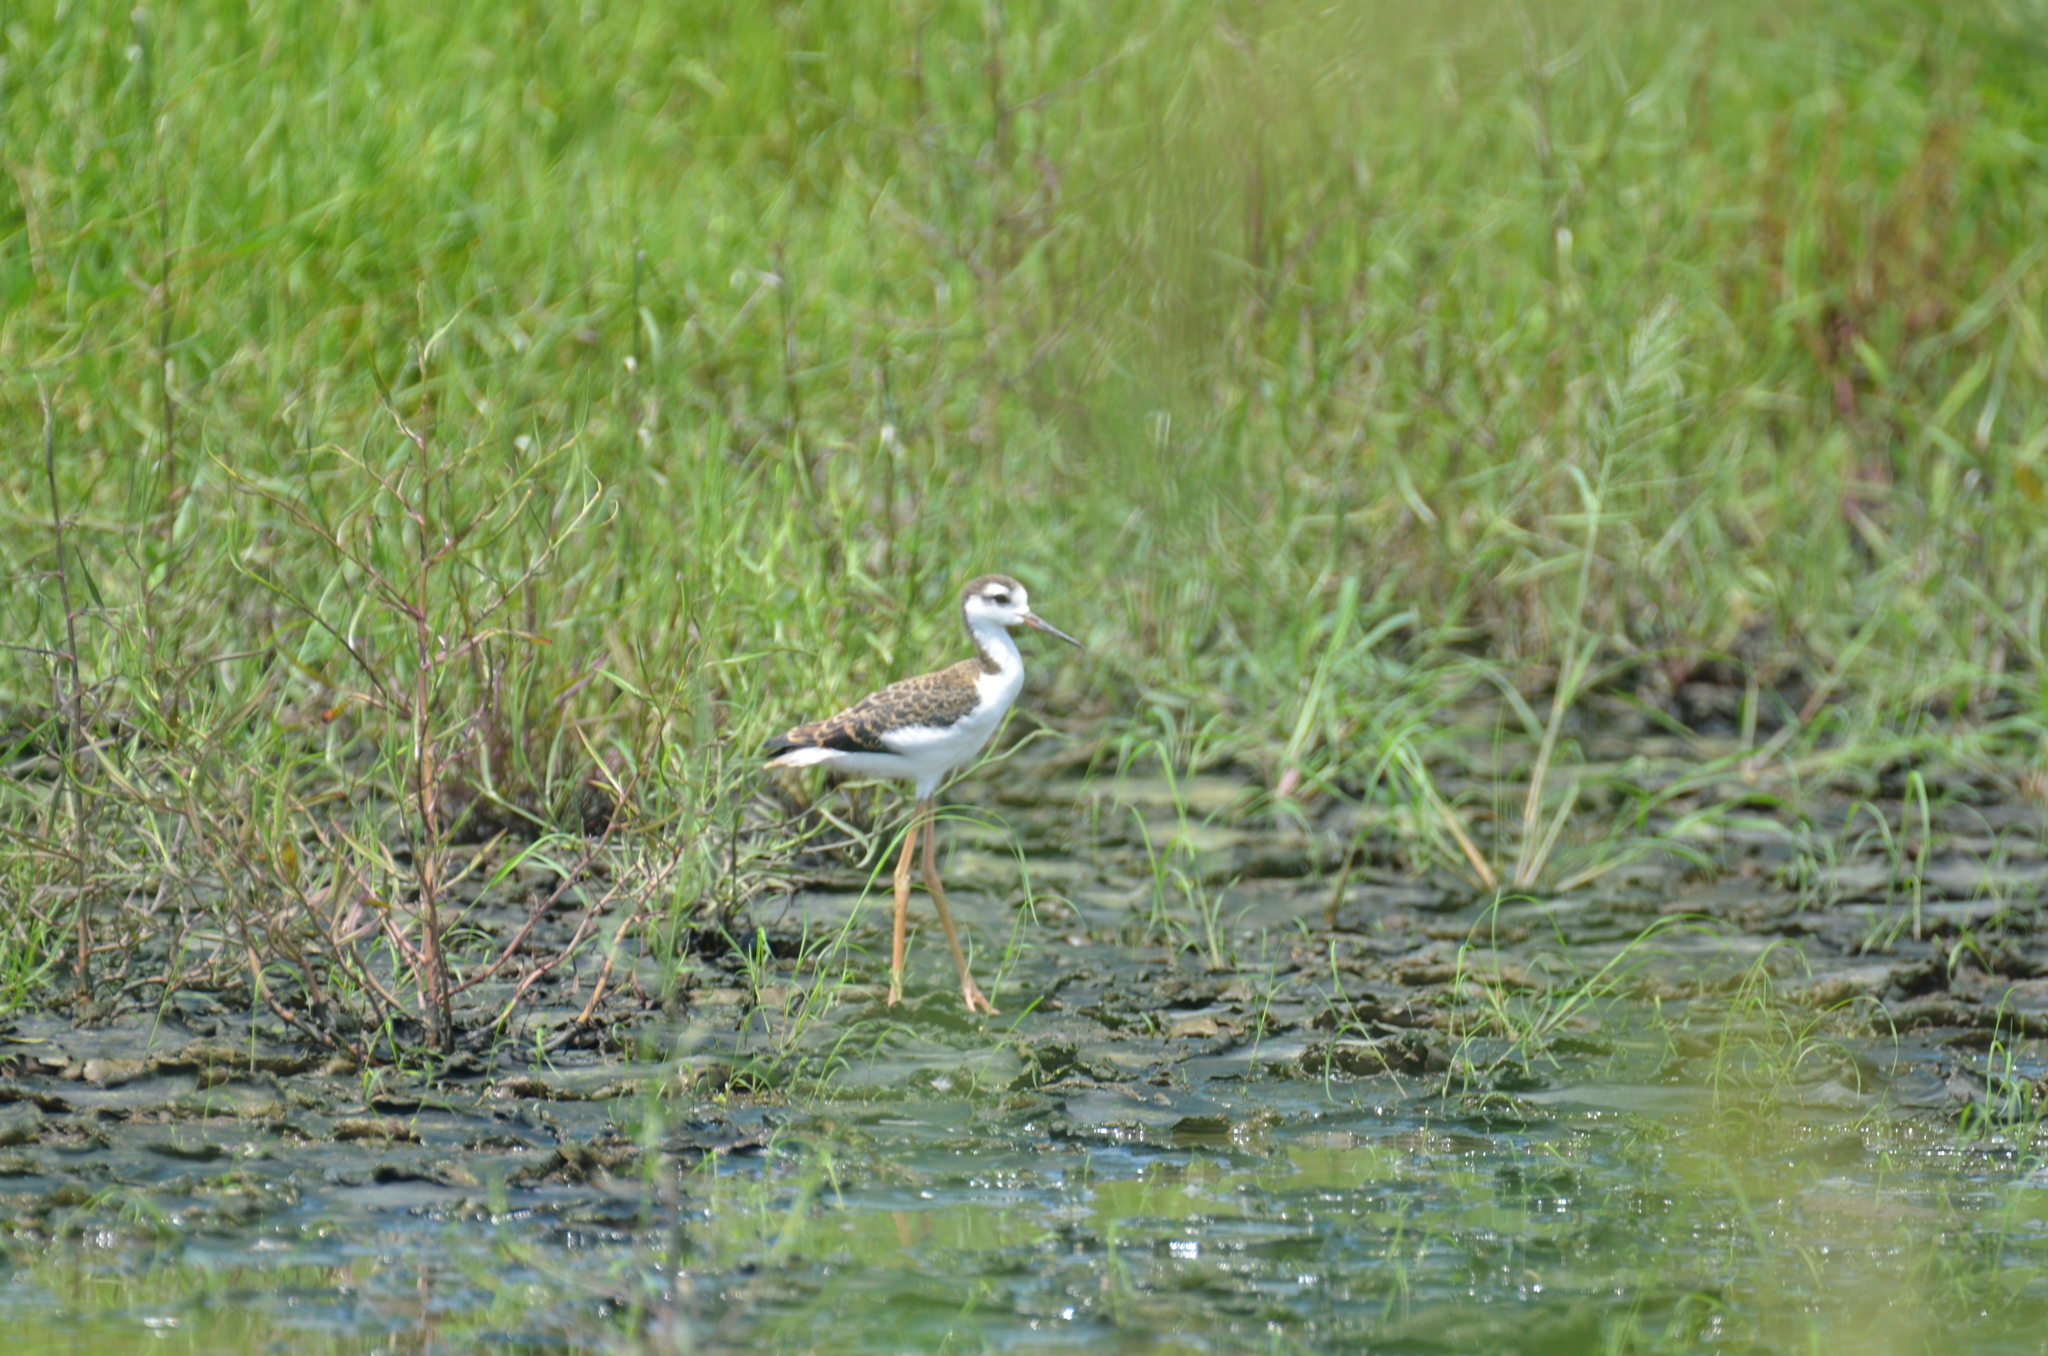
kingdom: Animalia
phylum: Chordata
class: Aves
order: Charadriiformes
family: Recurvirostridae
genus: Himantopus
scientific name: Himantopus mexicanus
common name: Black-necked stilt
